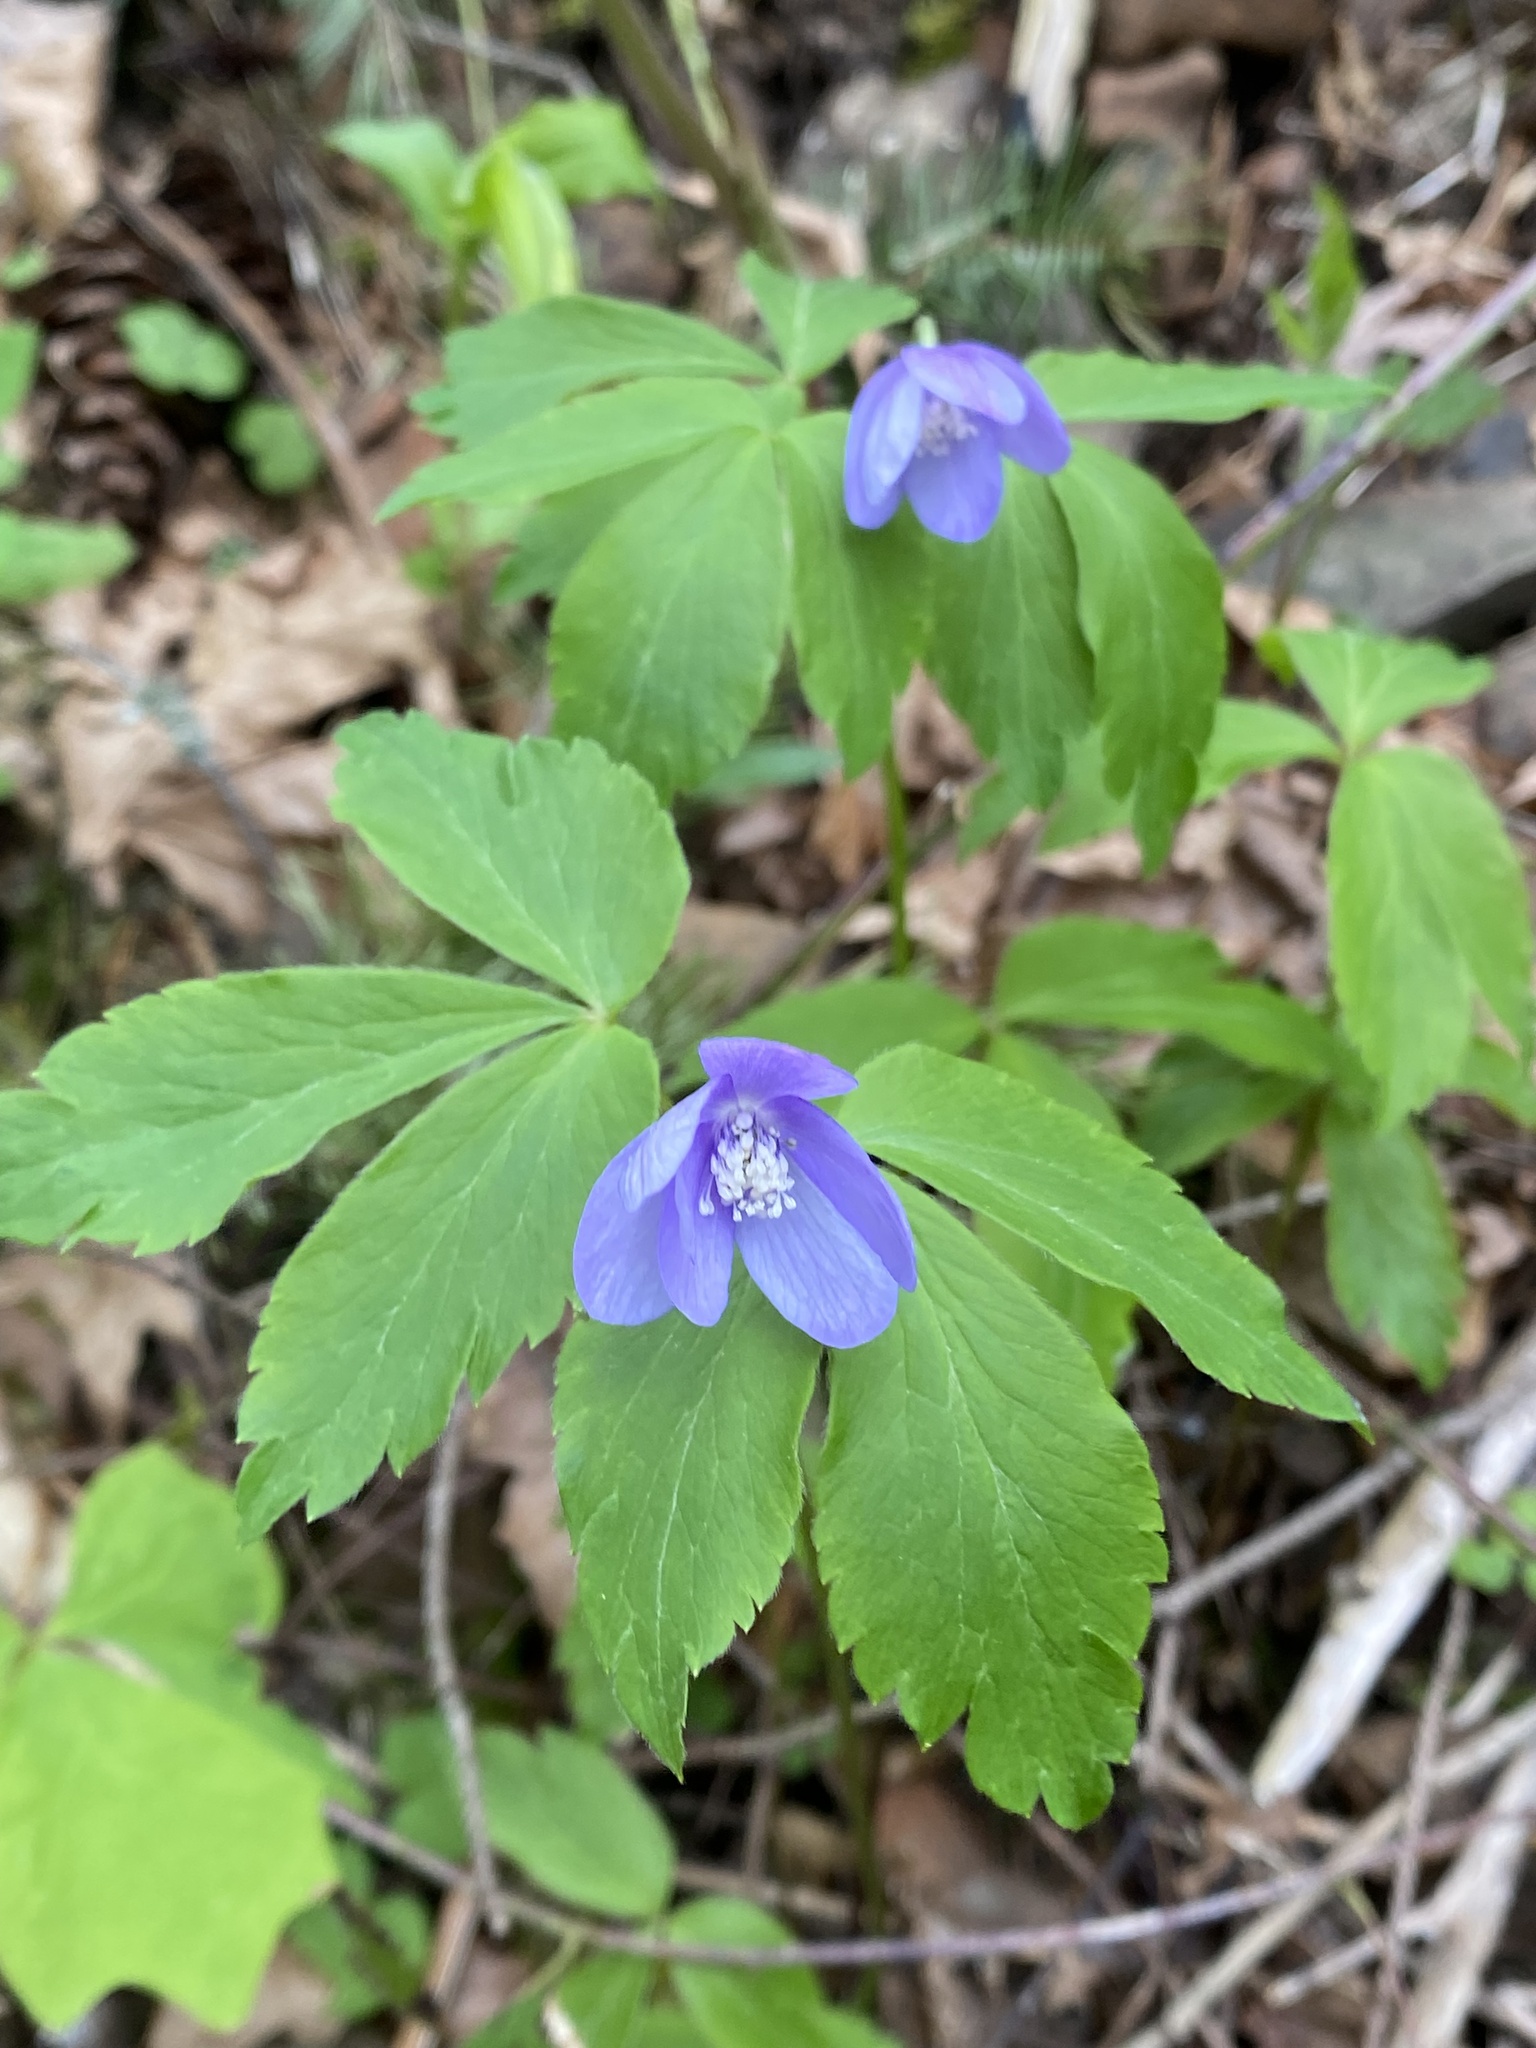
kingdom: Plantae
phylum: Tracheophyta
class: Magnoliopsida
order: Ranunculales
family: Ranunculaceae
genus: Anemone
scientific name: Anemone oregana
